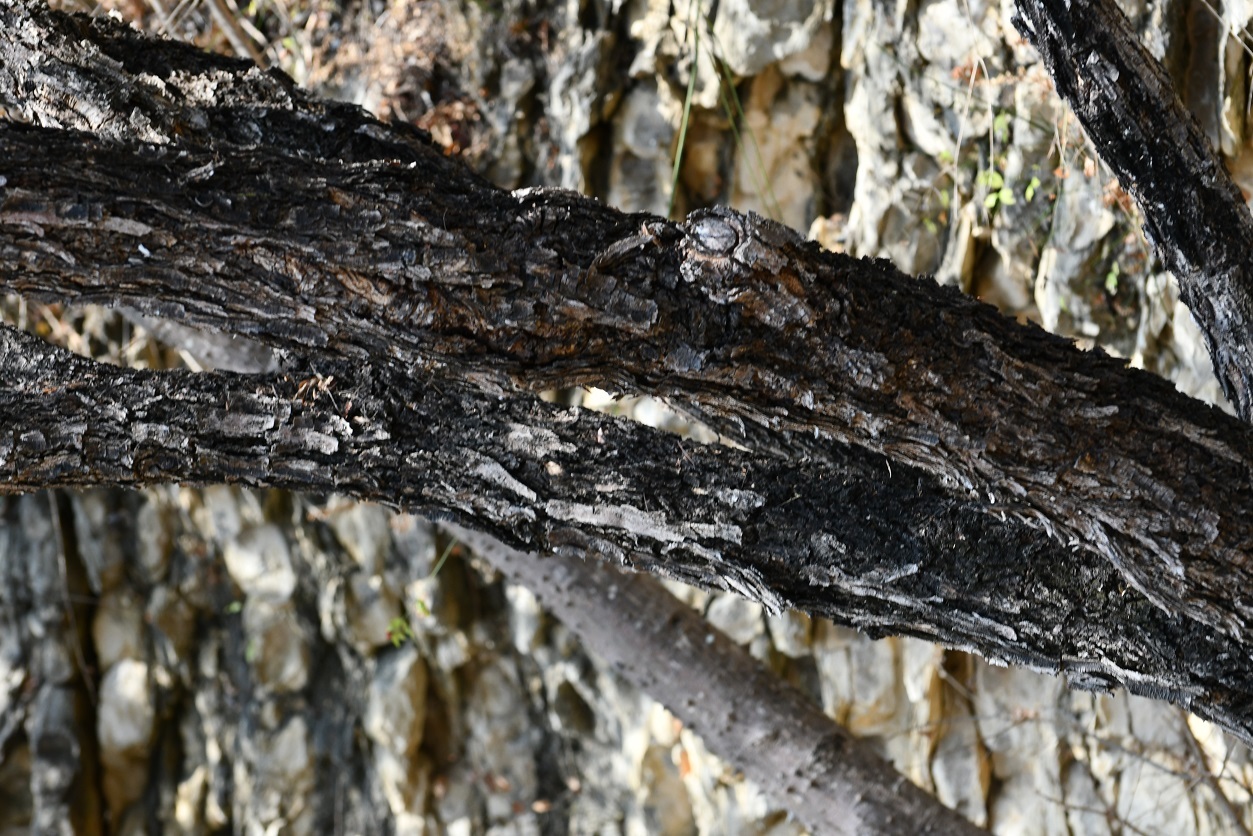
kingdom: Plantae
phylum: Tracheophyta
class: Magnoliopsida
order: Fabales
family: Fabaceae
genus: Lysiloma
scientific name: Lysiloma auritum
